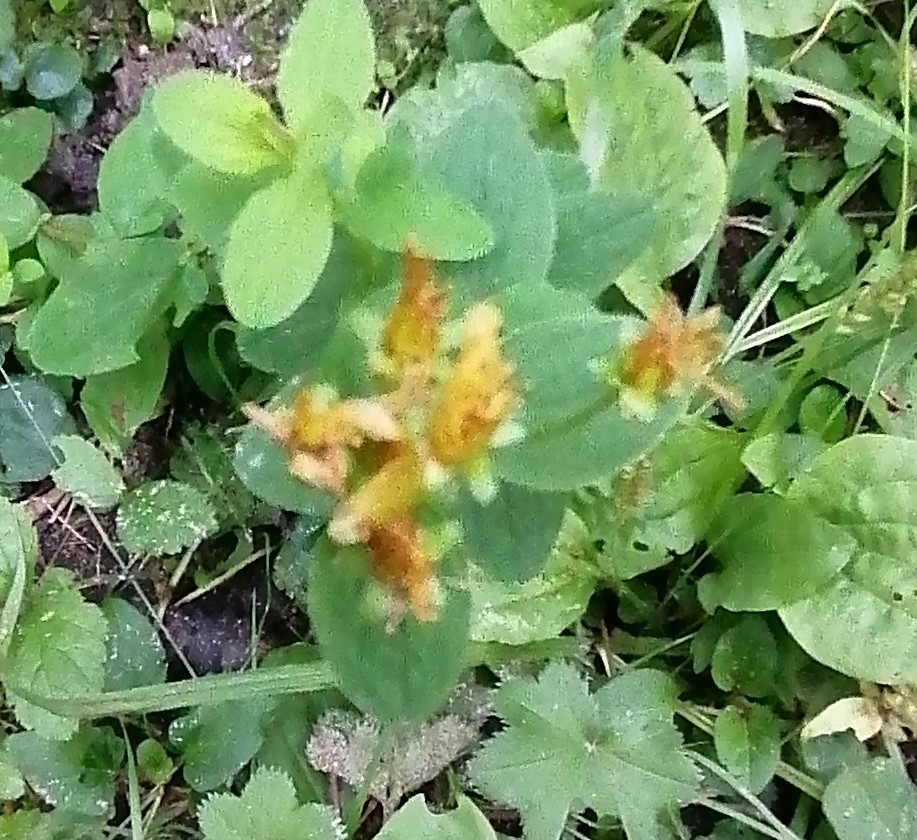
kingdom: Plantae
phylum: Tracheophyta
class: Magnoliopsida
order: Malpighiales
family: Hypericaceae
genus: Hypericum
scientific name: Hypericum maculatum
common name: Imperforate st. john's-wort
